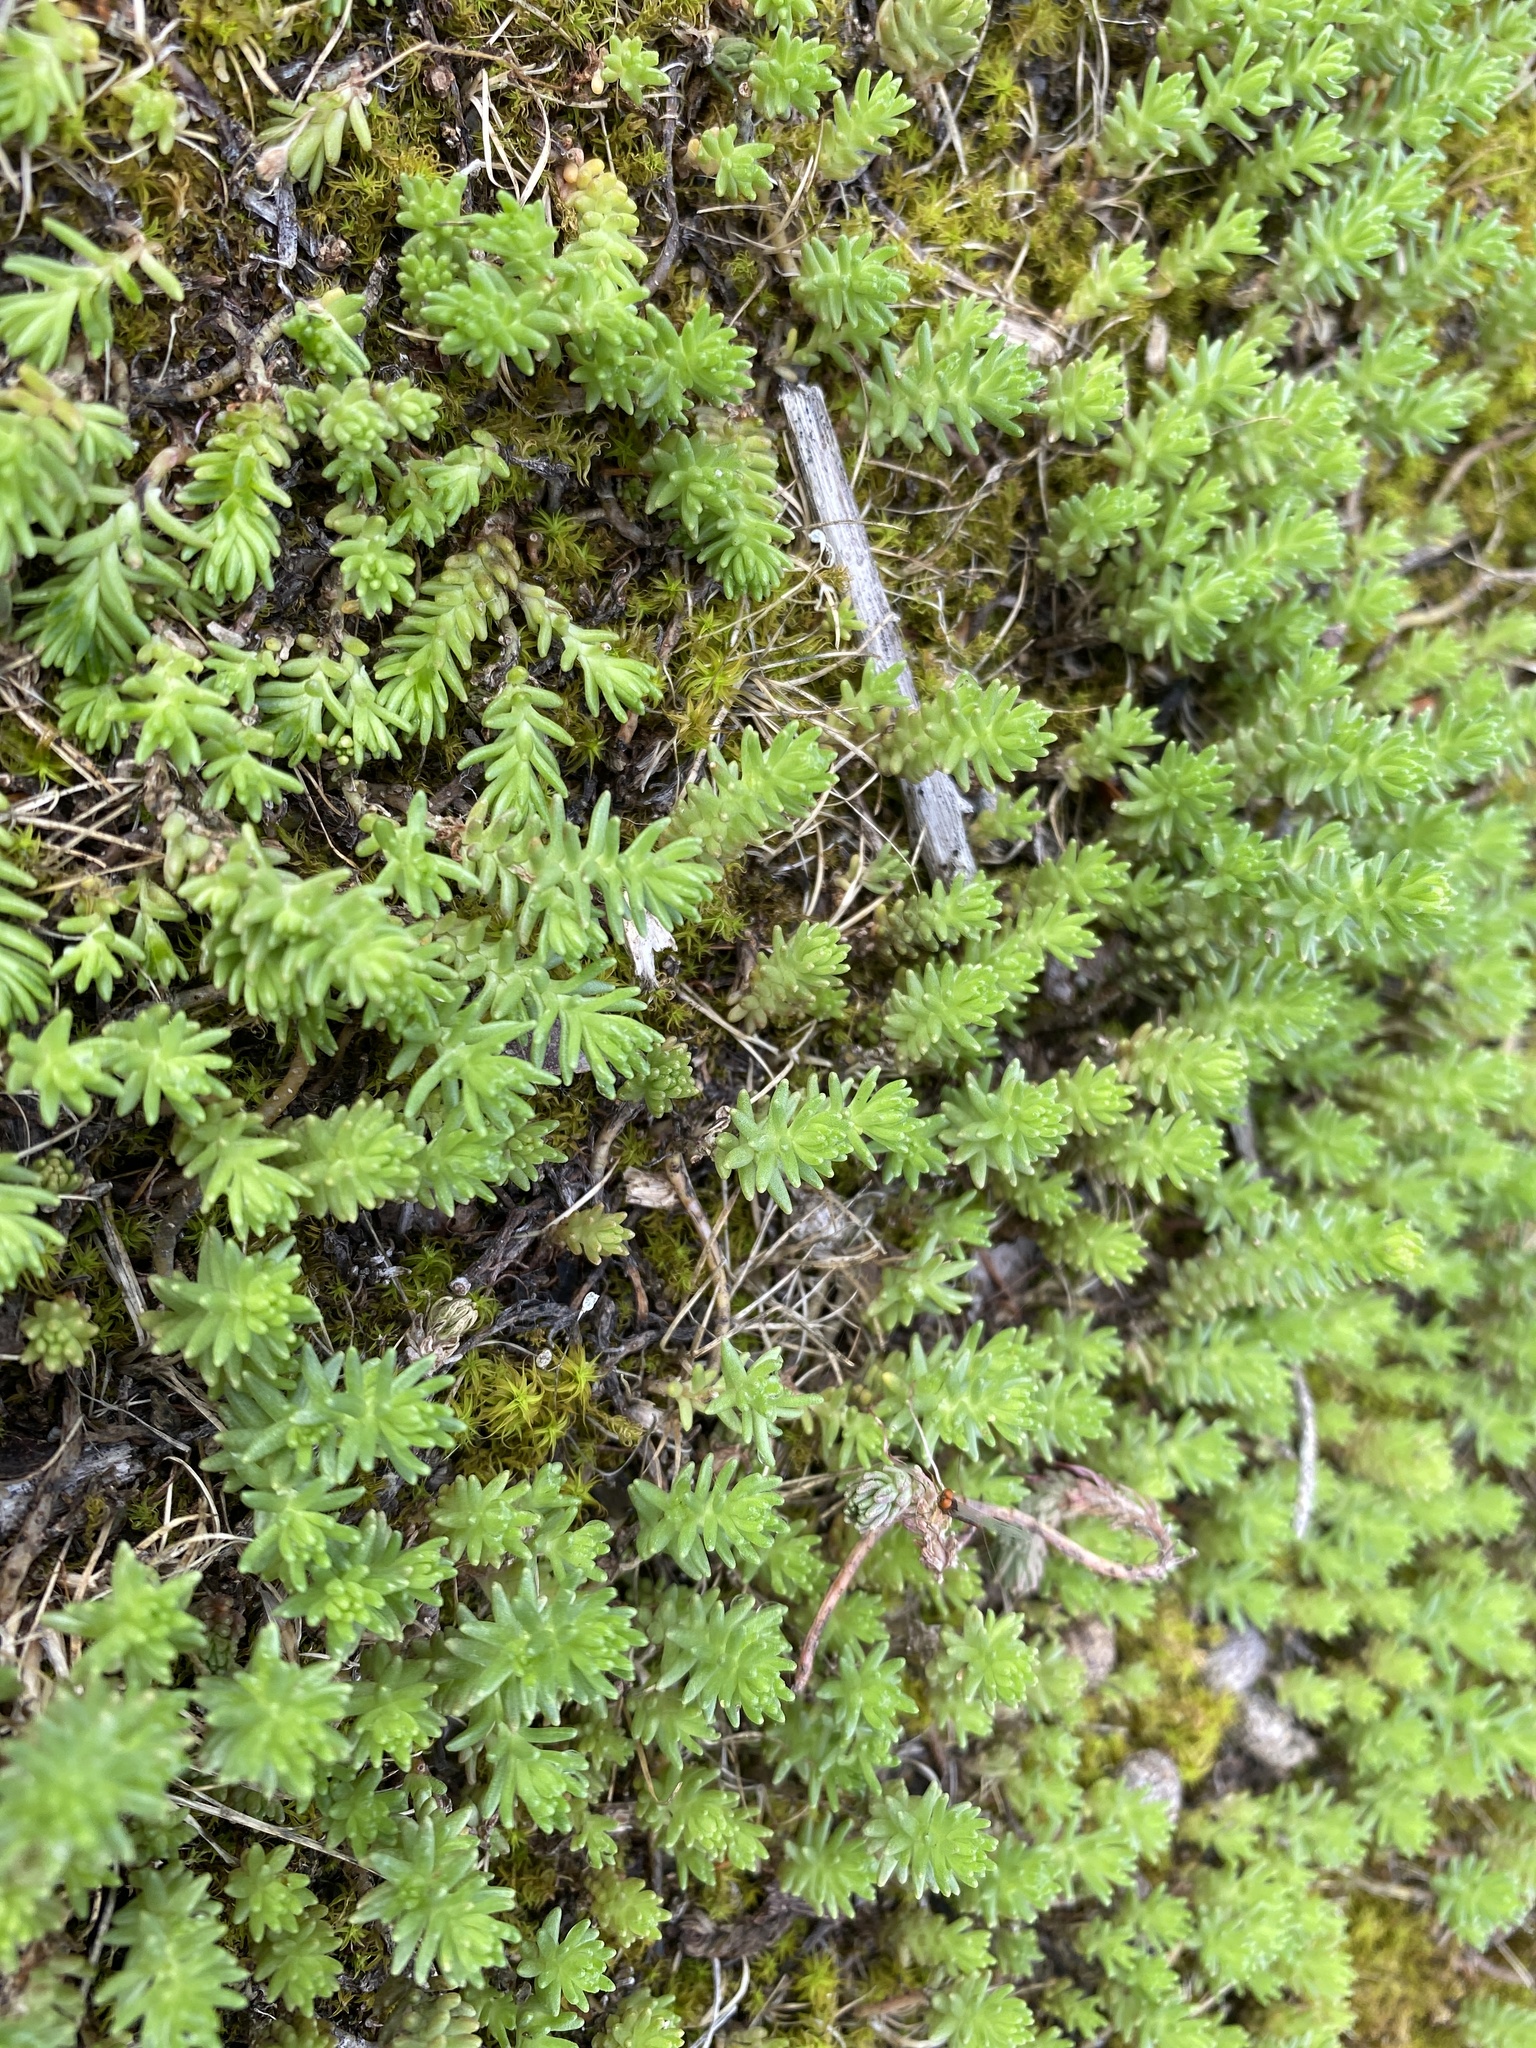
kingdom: Plantae
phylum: Tracheophyta
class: Magnoliopsida
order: Saxifragales
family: Crassulaceae
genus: Sedum
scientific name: Sedum sexangulare
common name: Tasteless stonecrop
